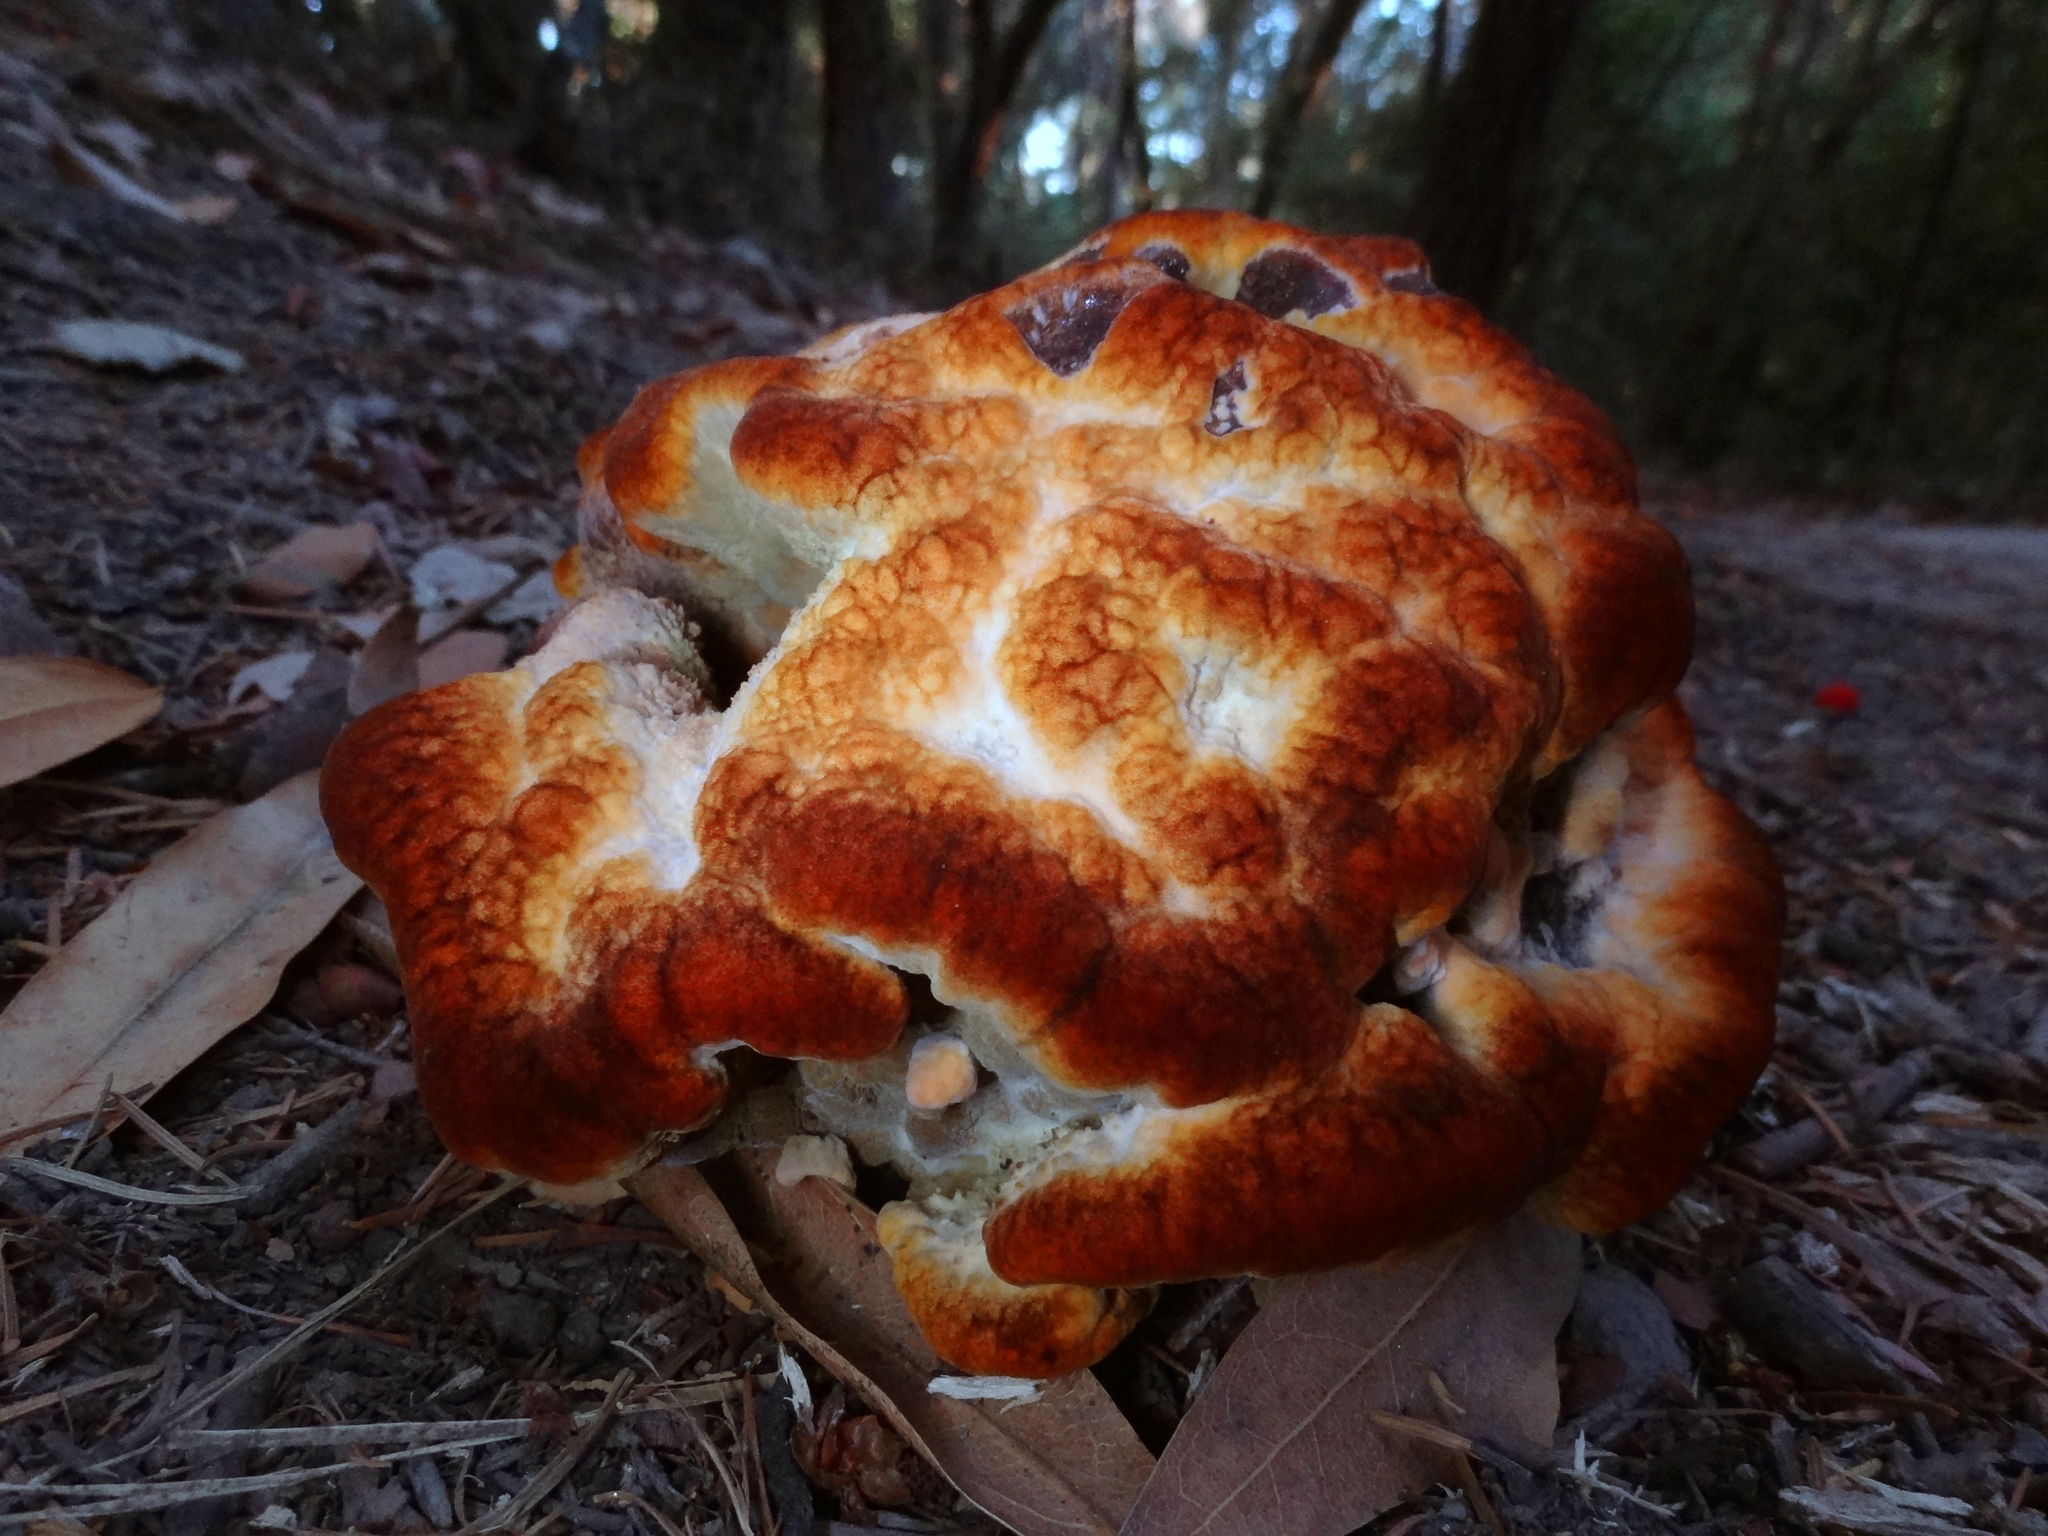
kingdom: Fungi
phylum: Basidiomycota
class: Agaricomycetes
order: Polyporales
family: Laetiporaceae
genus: Phaeolus
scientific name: Phaeolus schweinitzii
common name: Dyer's mazegill
